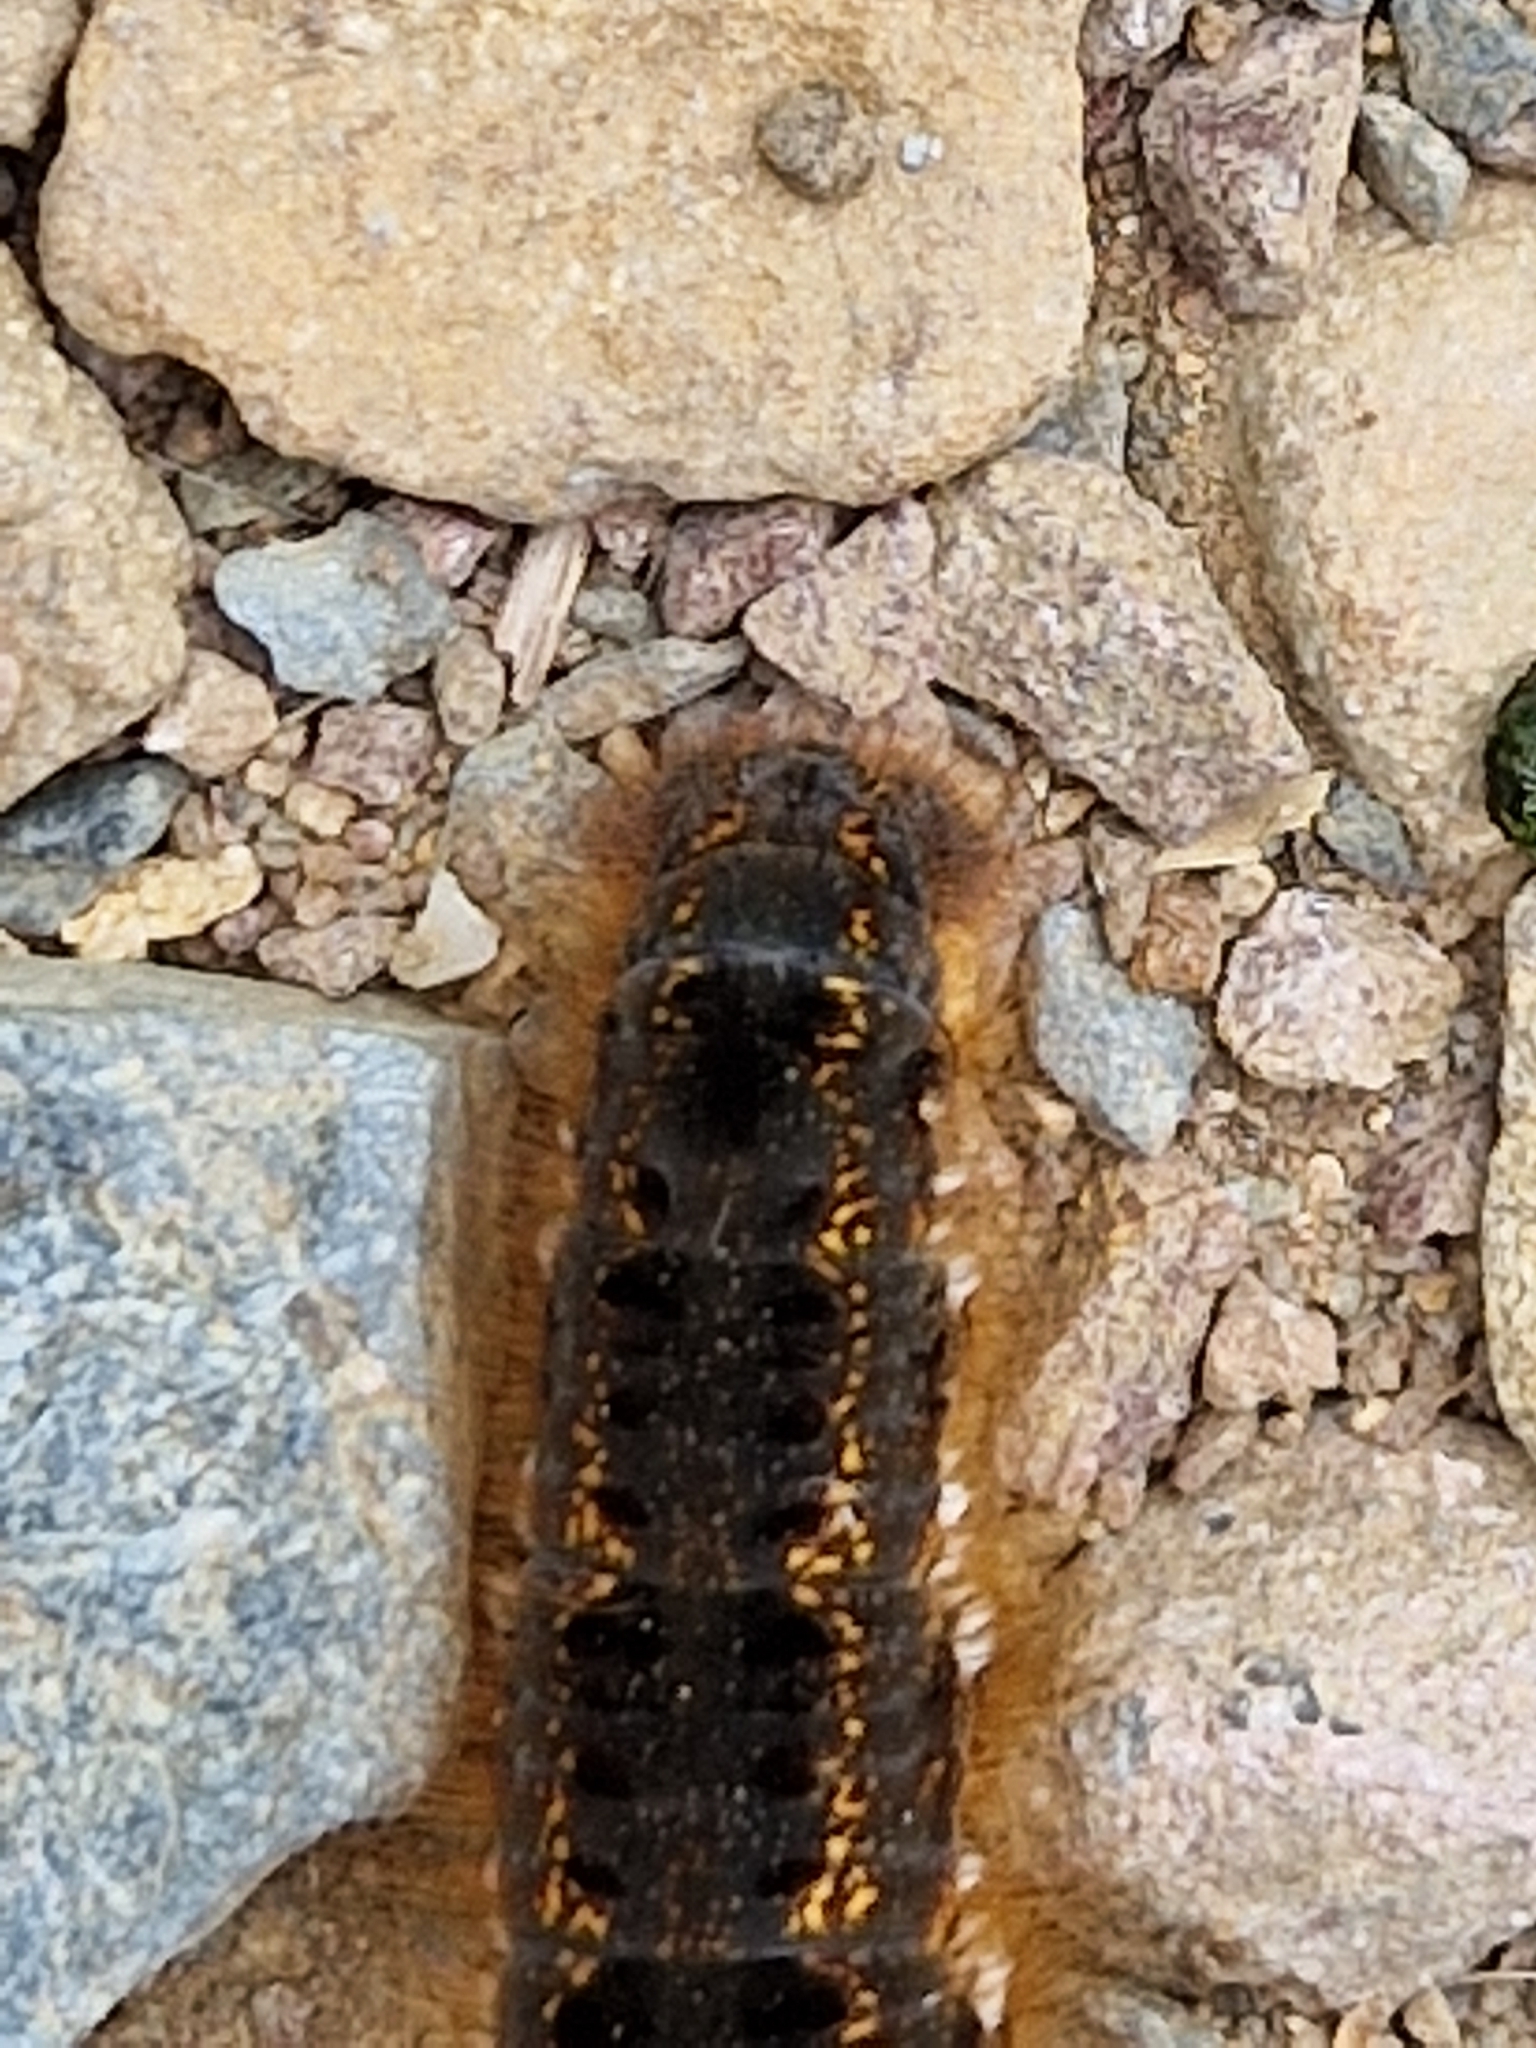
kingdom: Animalia
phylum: Arthropoda
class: Insecta
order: Lepidoptera
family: Lasiocampidae
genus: Euthrix
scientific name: Euthrix potatoria
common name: Drinker
